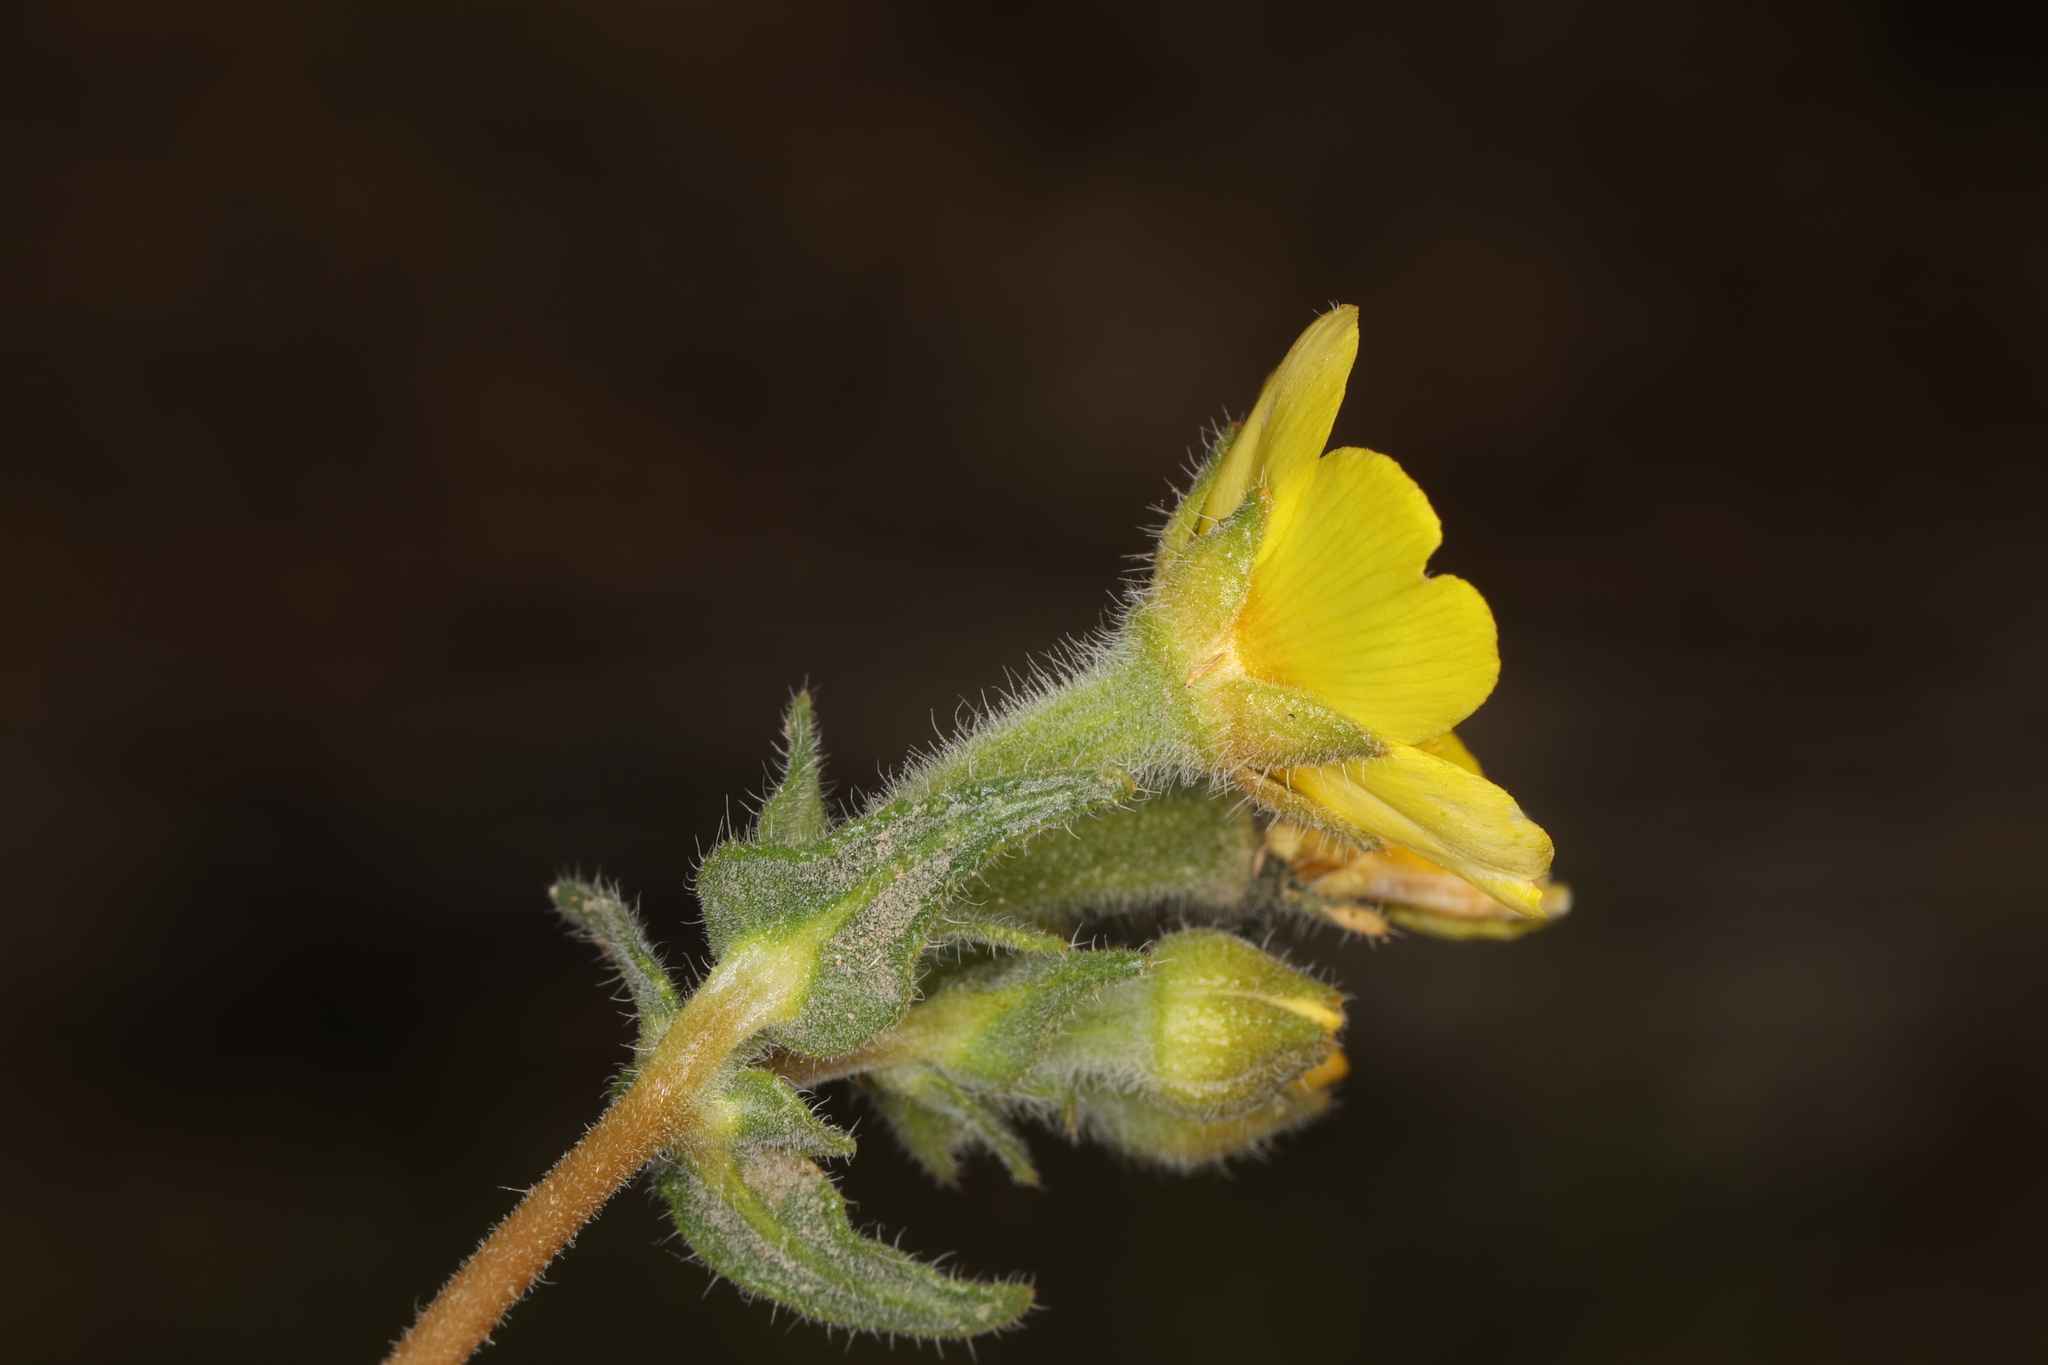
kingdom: Plantae
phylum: Tracheophyta
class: Magnoliopsida
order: Cornales
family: Loasaceae
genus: Mentzelia
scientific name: Mentzelia nitens
